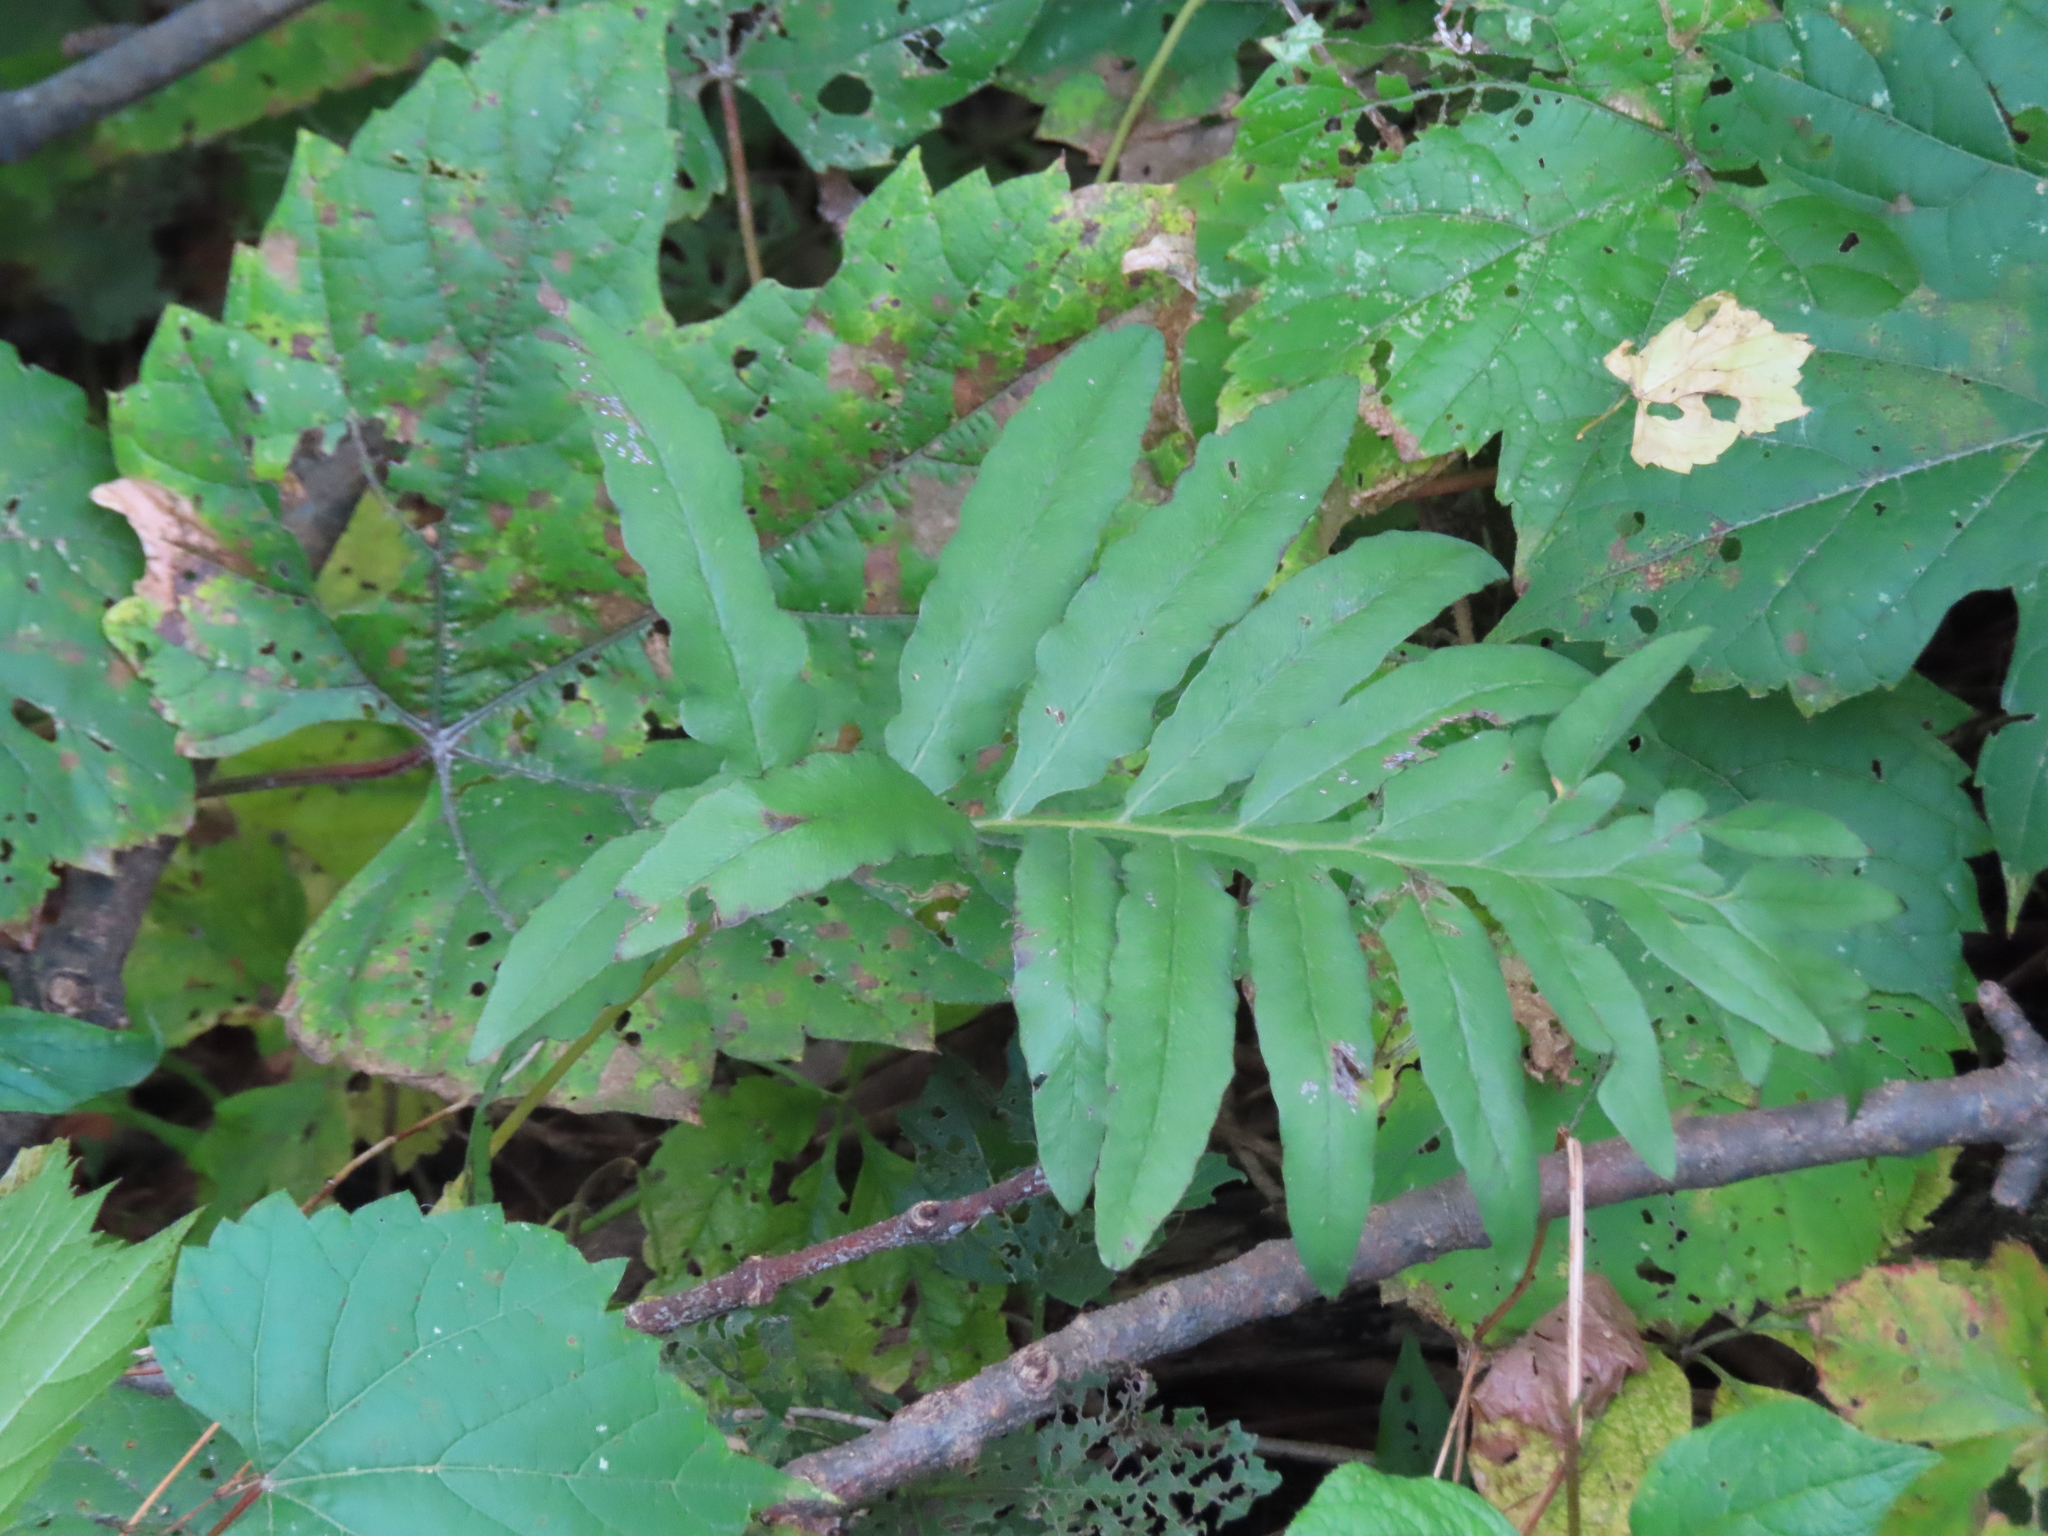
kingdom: Plantae
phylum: Tracheophyta
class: Polypodiopsida
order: Polypodiales
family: Onocleaceae
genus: Onoclea
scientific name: Onoclea sensibilis
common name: Sensitive fern
